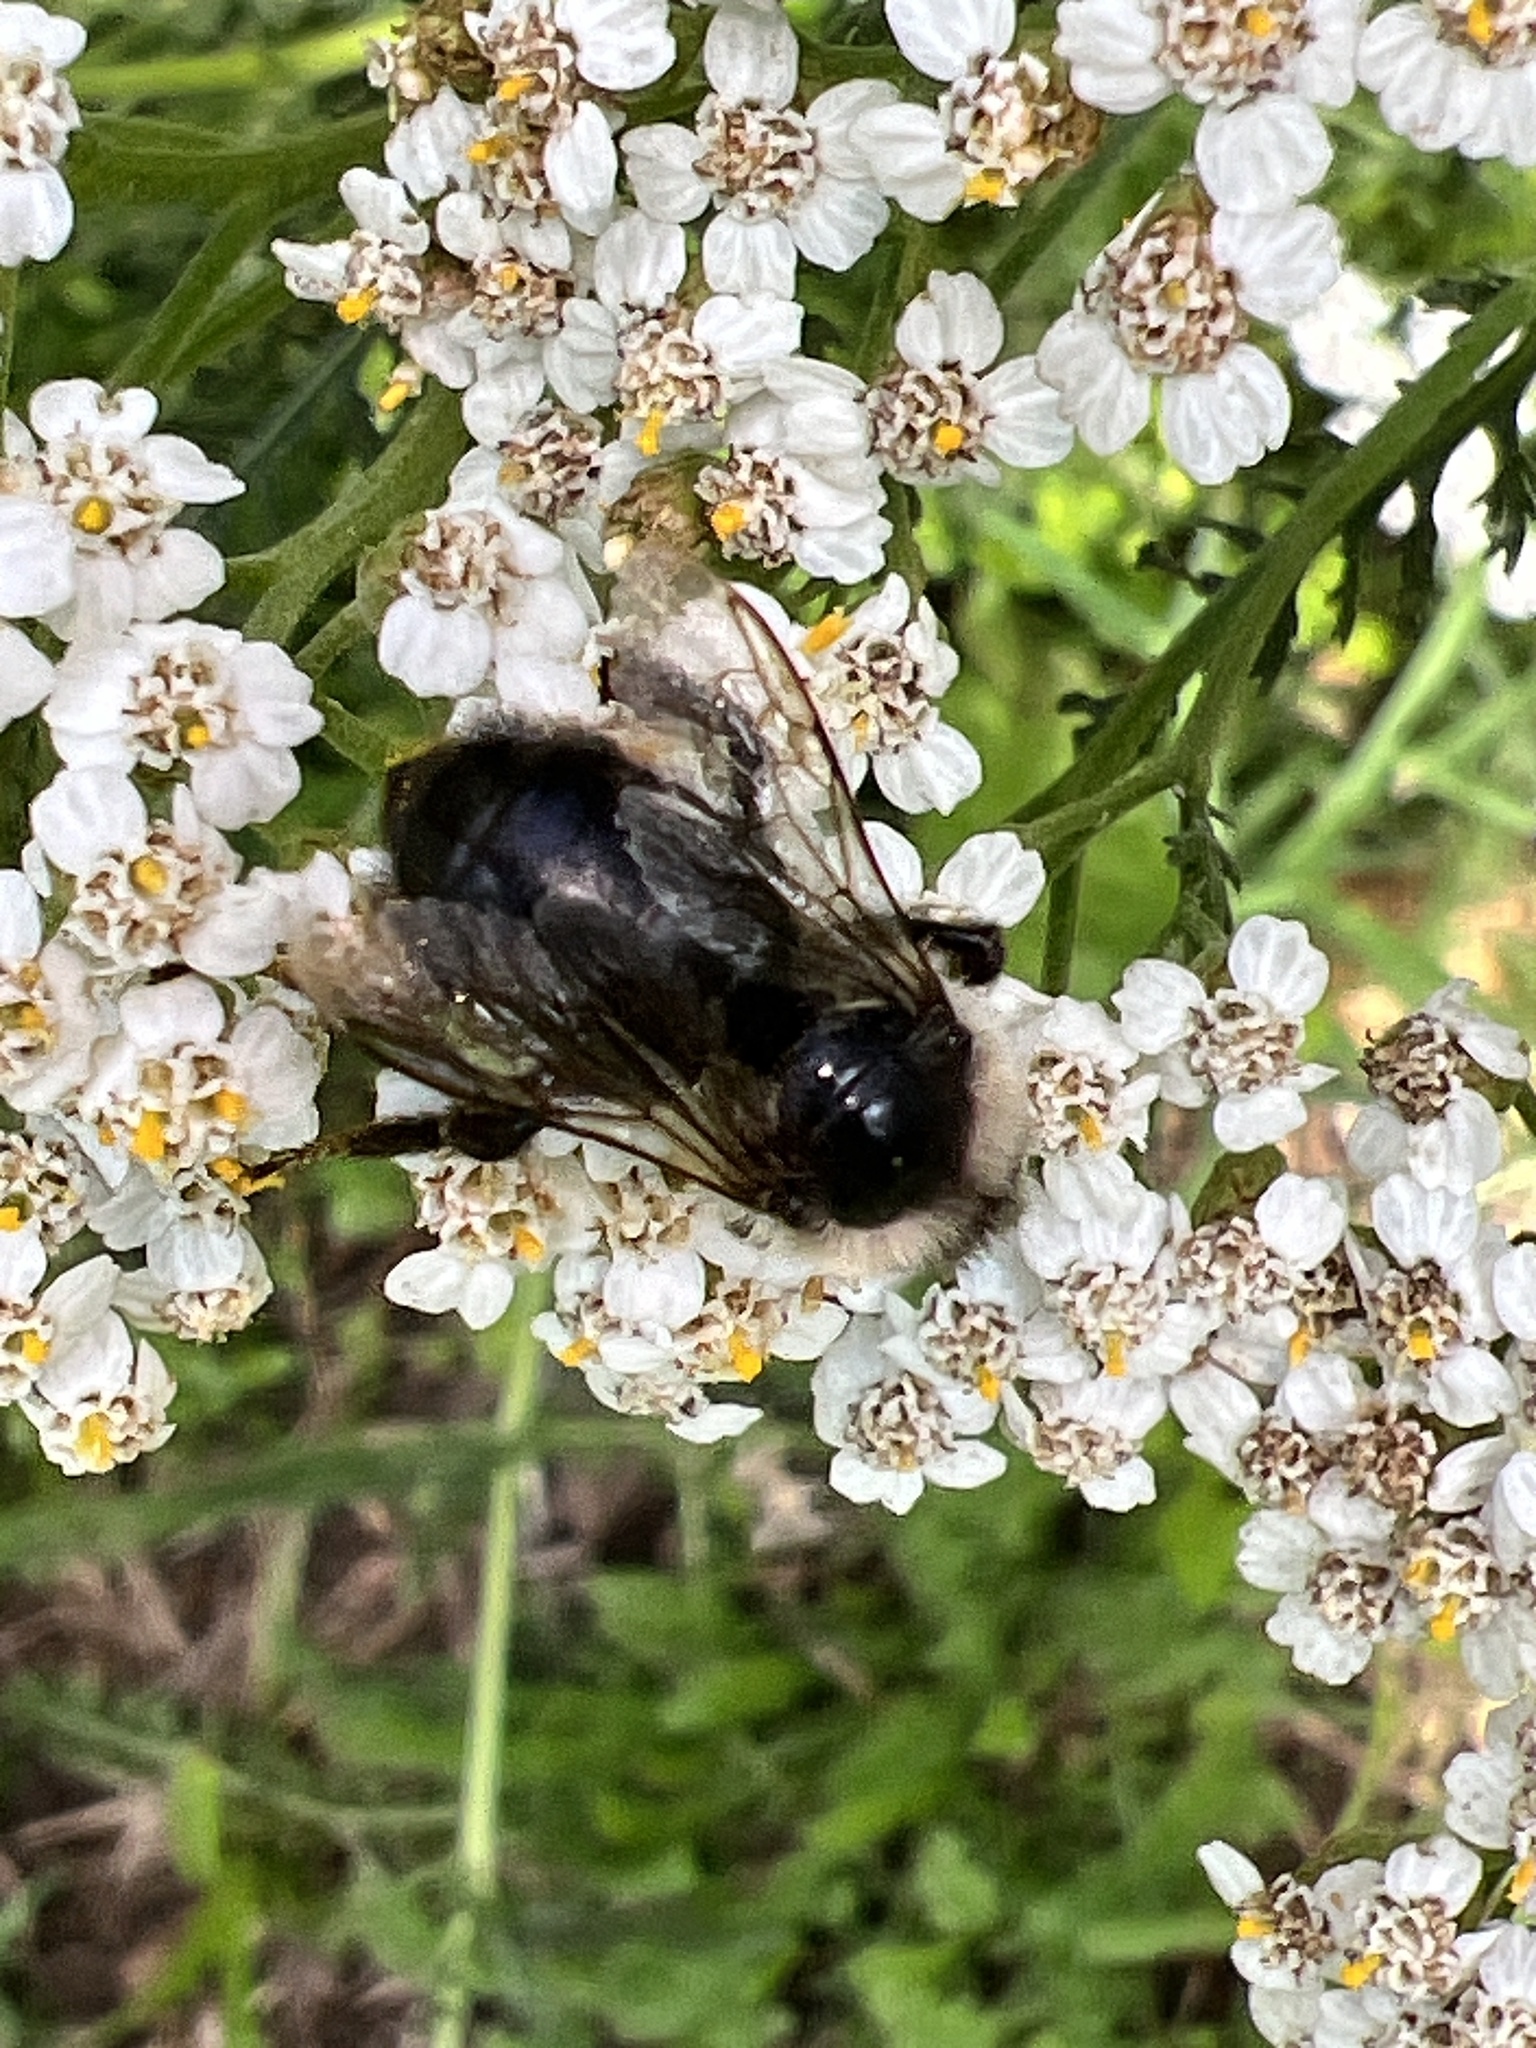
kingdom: Animalia
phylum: Arthropoda
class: Insecta
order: Hymenoptera
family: Apidae
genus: Bombus
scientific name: Bombus
